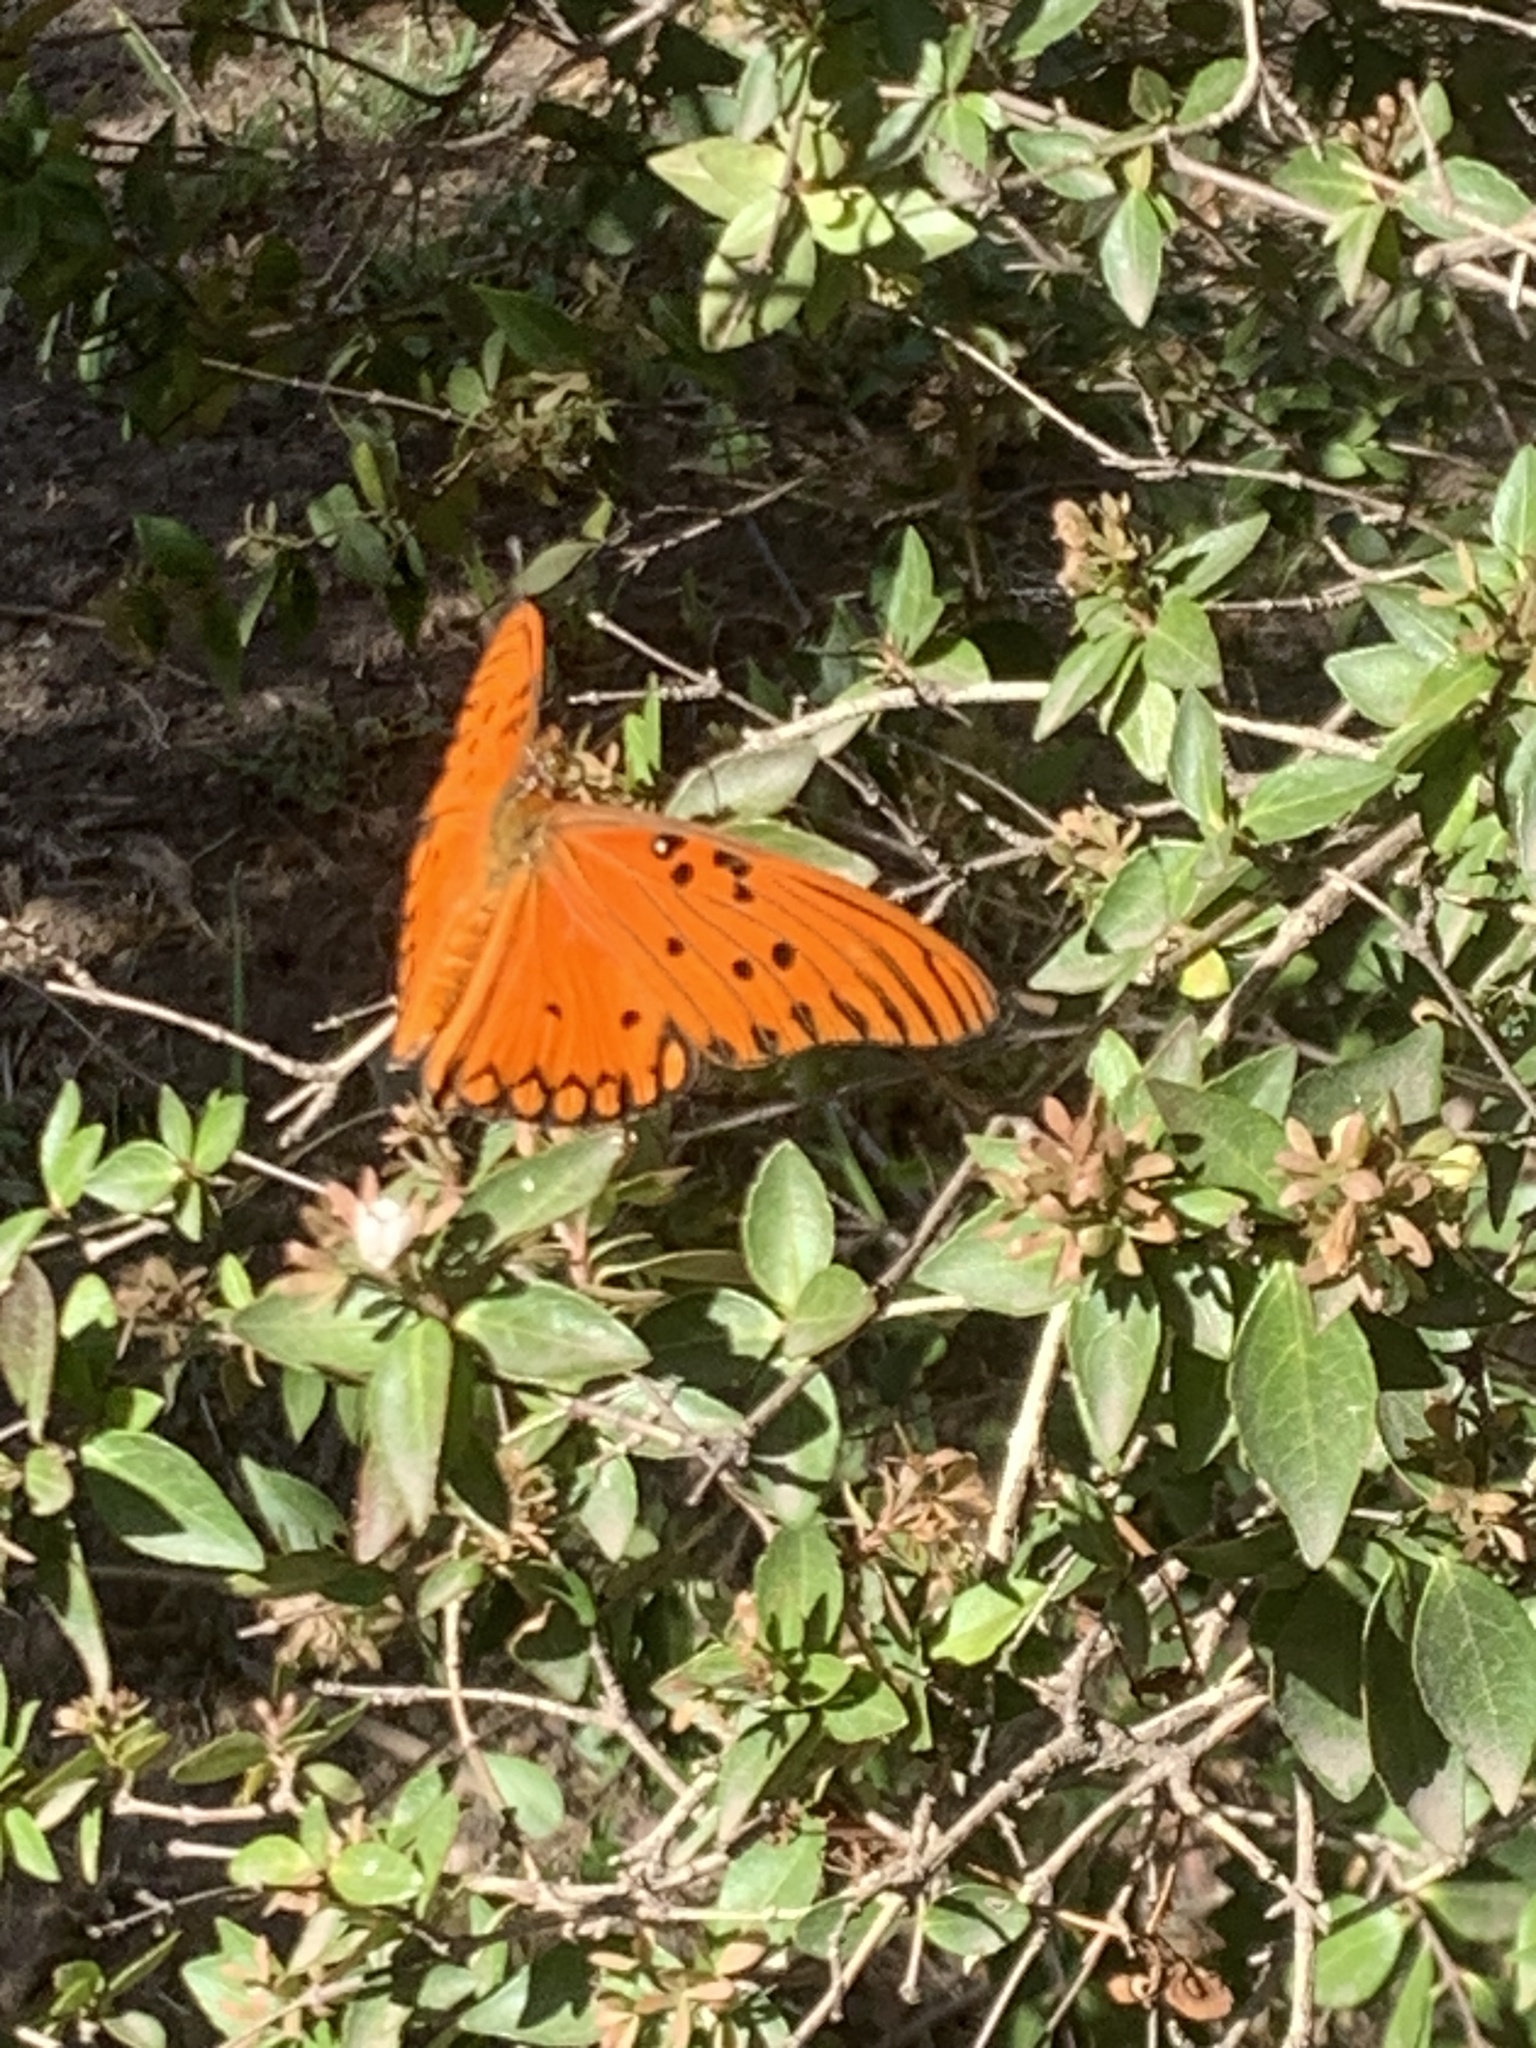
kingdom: Animalia
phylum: Arthropoda
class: Insecta
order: Lepidoptera
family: Nymphalidae
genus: Dione
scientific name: Dione vanillae
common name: Gulf fritillary
